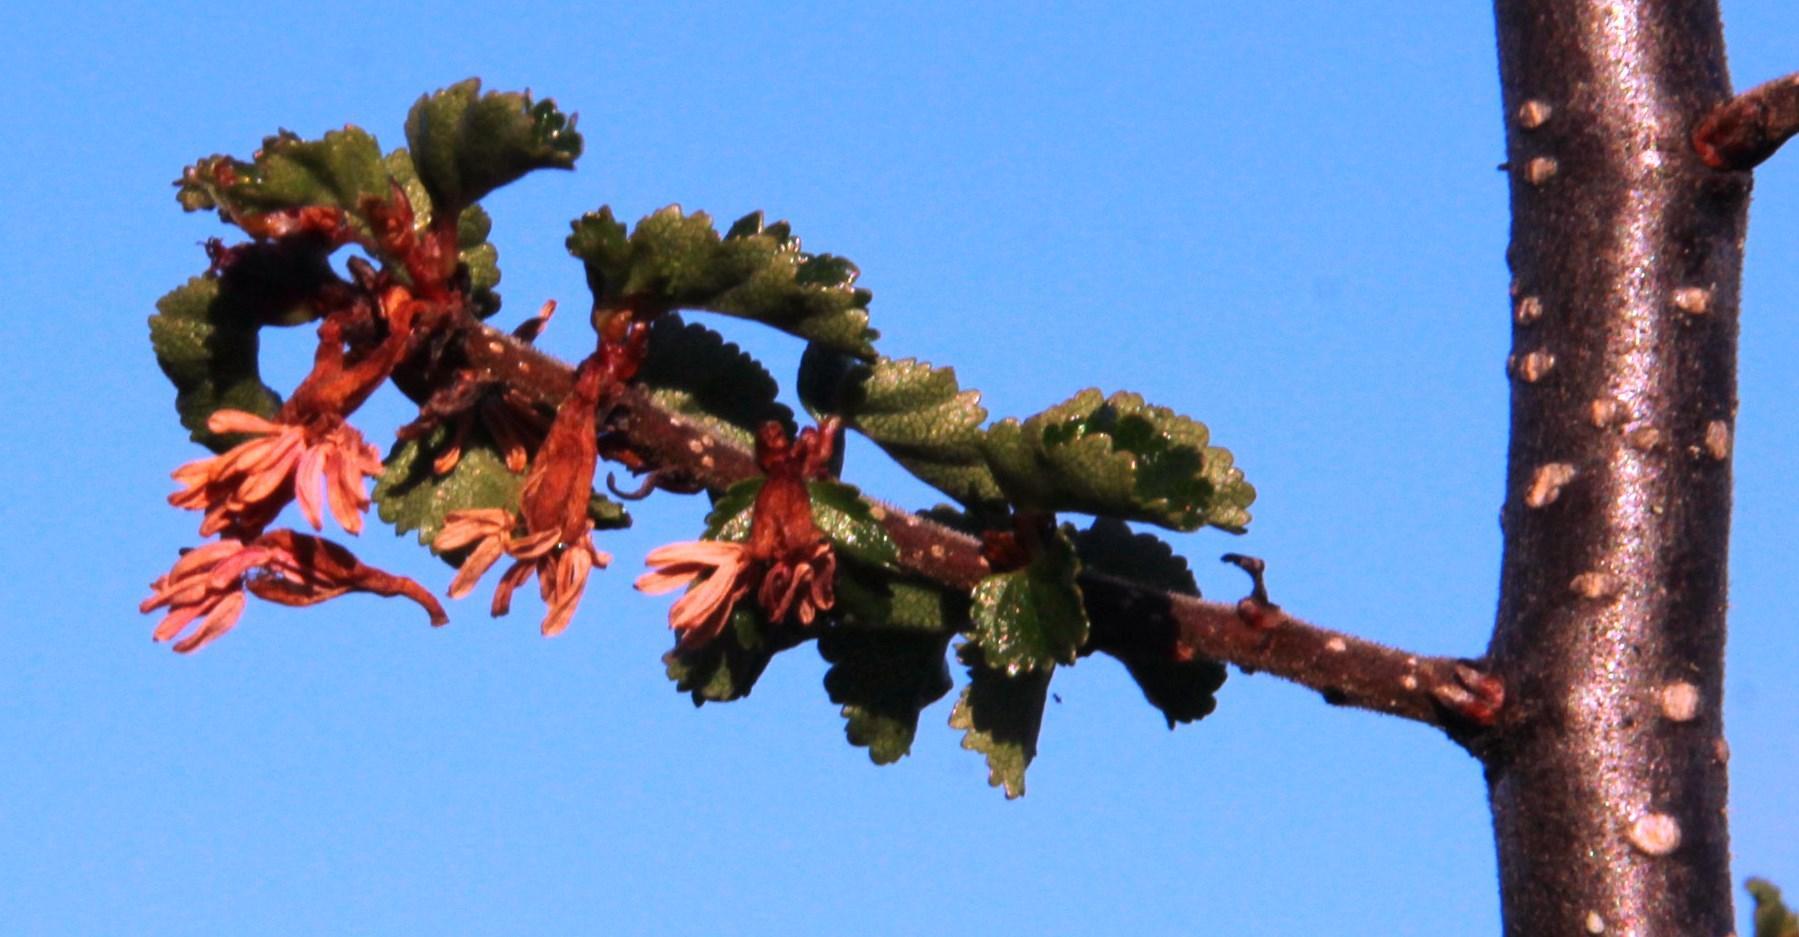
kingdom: Plantae
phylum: Tracheophyta
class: Magnoliopsida
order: Fagales
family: Nothofagaceae
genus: Nothofagus
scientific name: Nothofagus antarctica
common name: Antarctic beech
